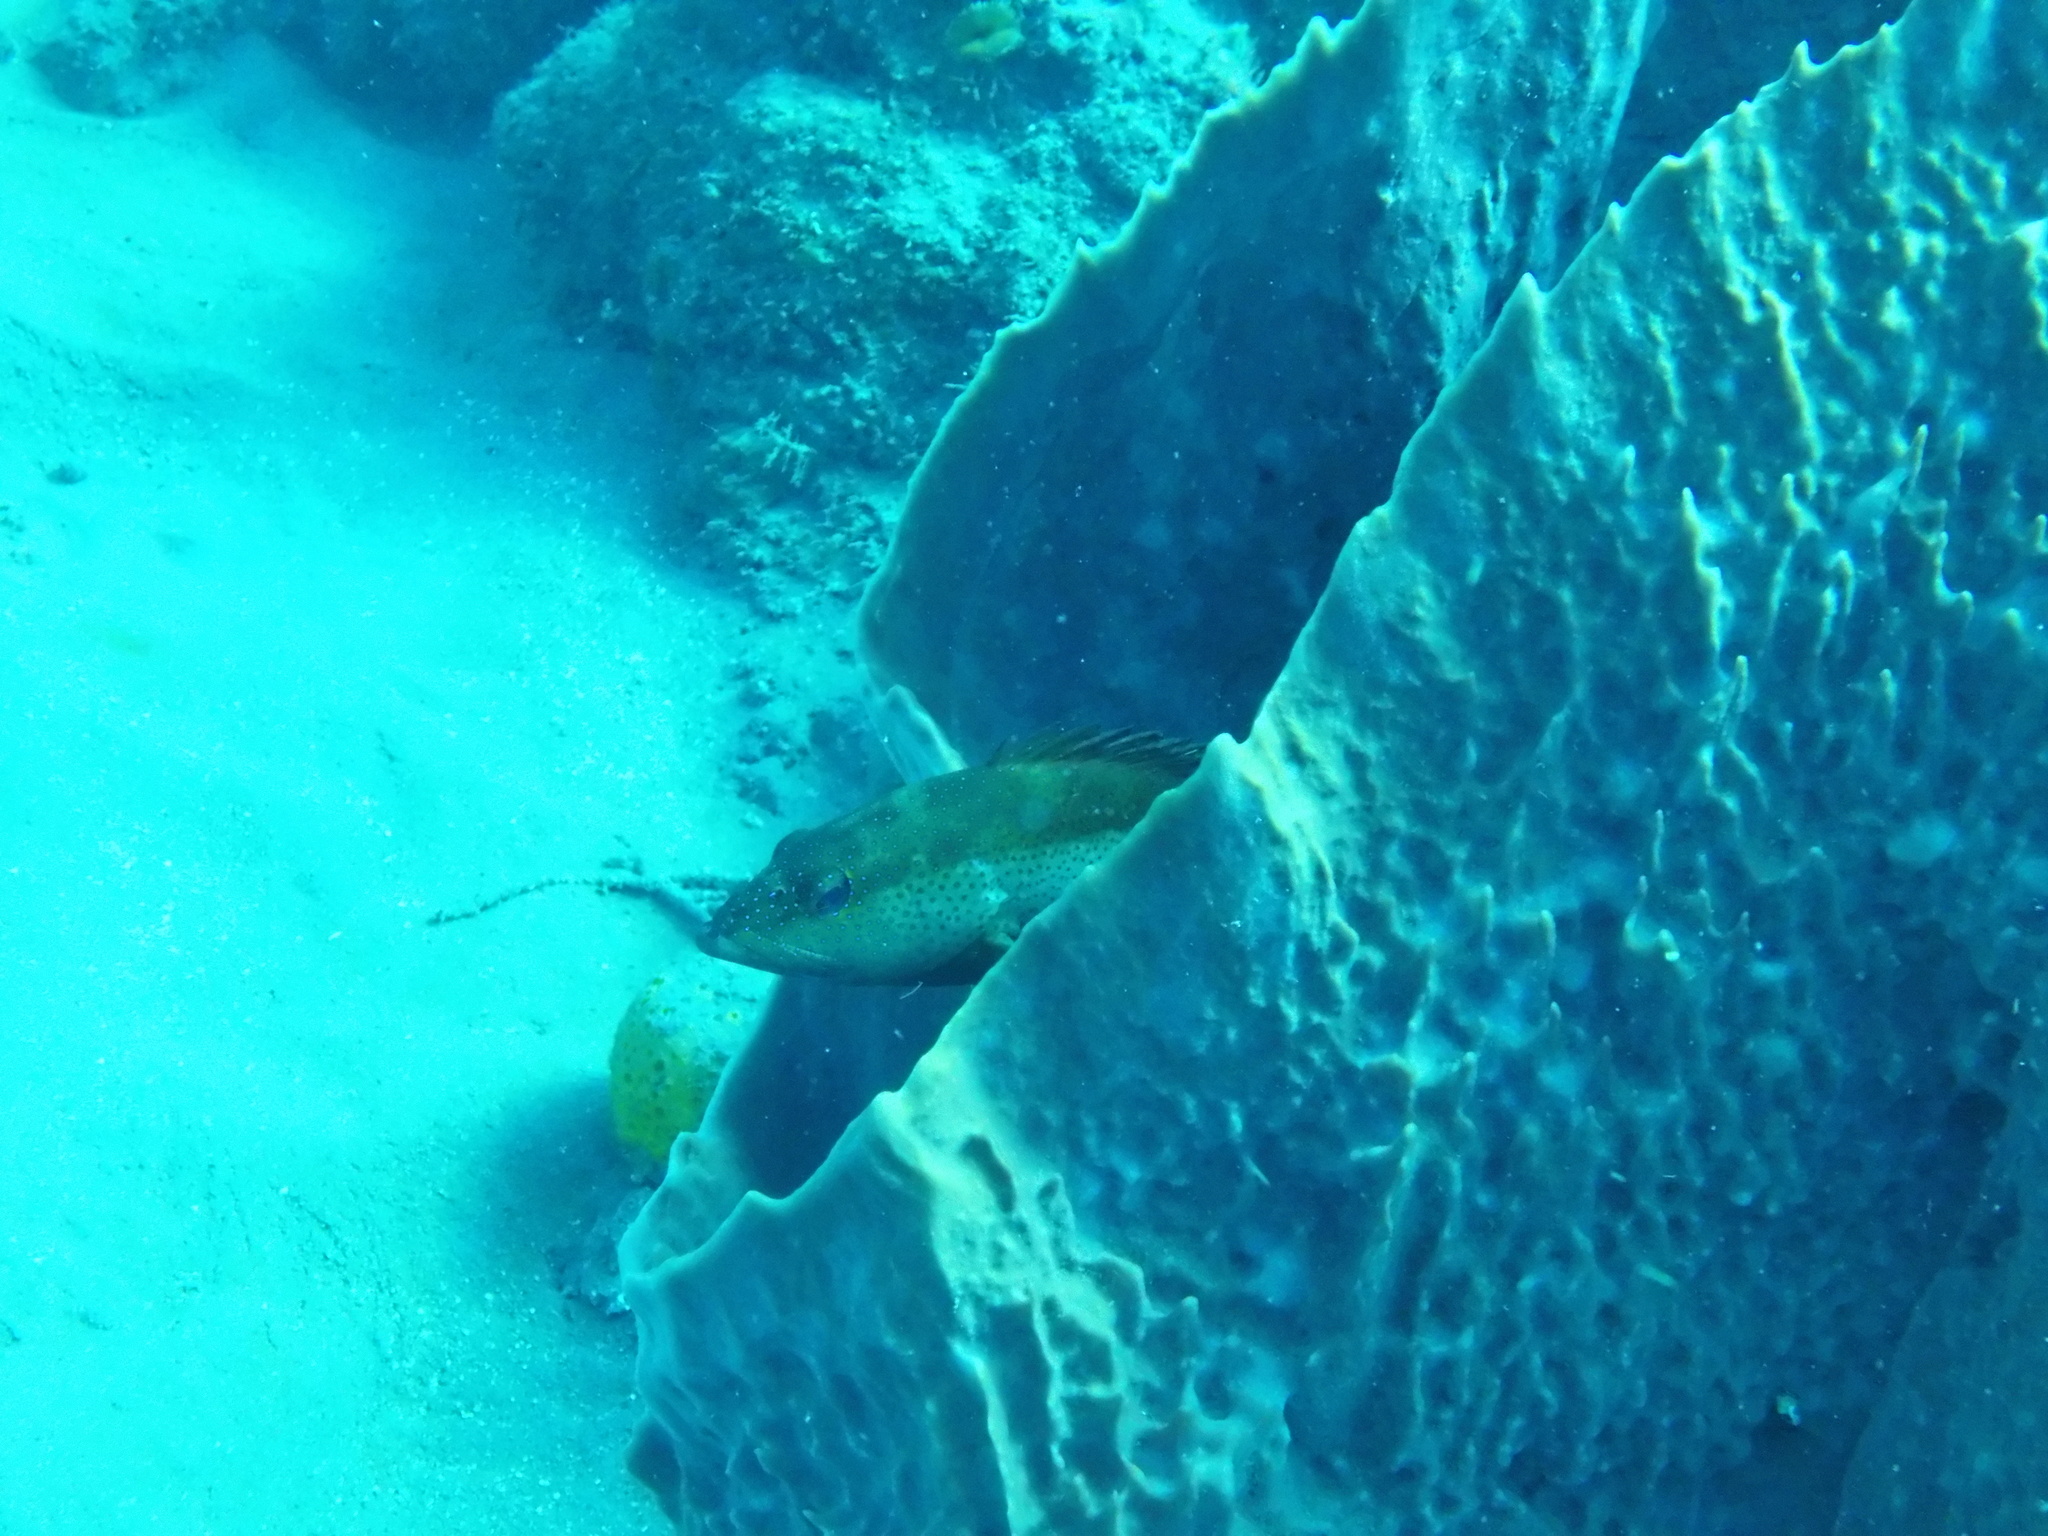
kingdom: Animalia
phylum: Chordata
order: Perciformes
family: Serranidae
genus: Cephalopholis
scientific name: Cephalopholis fulva
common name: Butterfish
